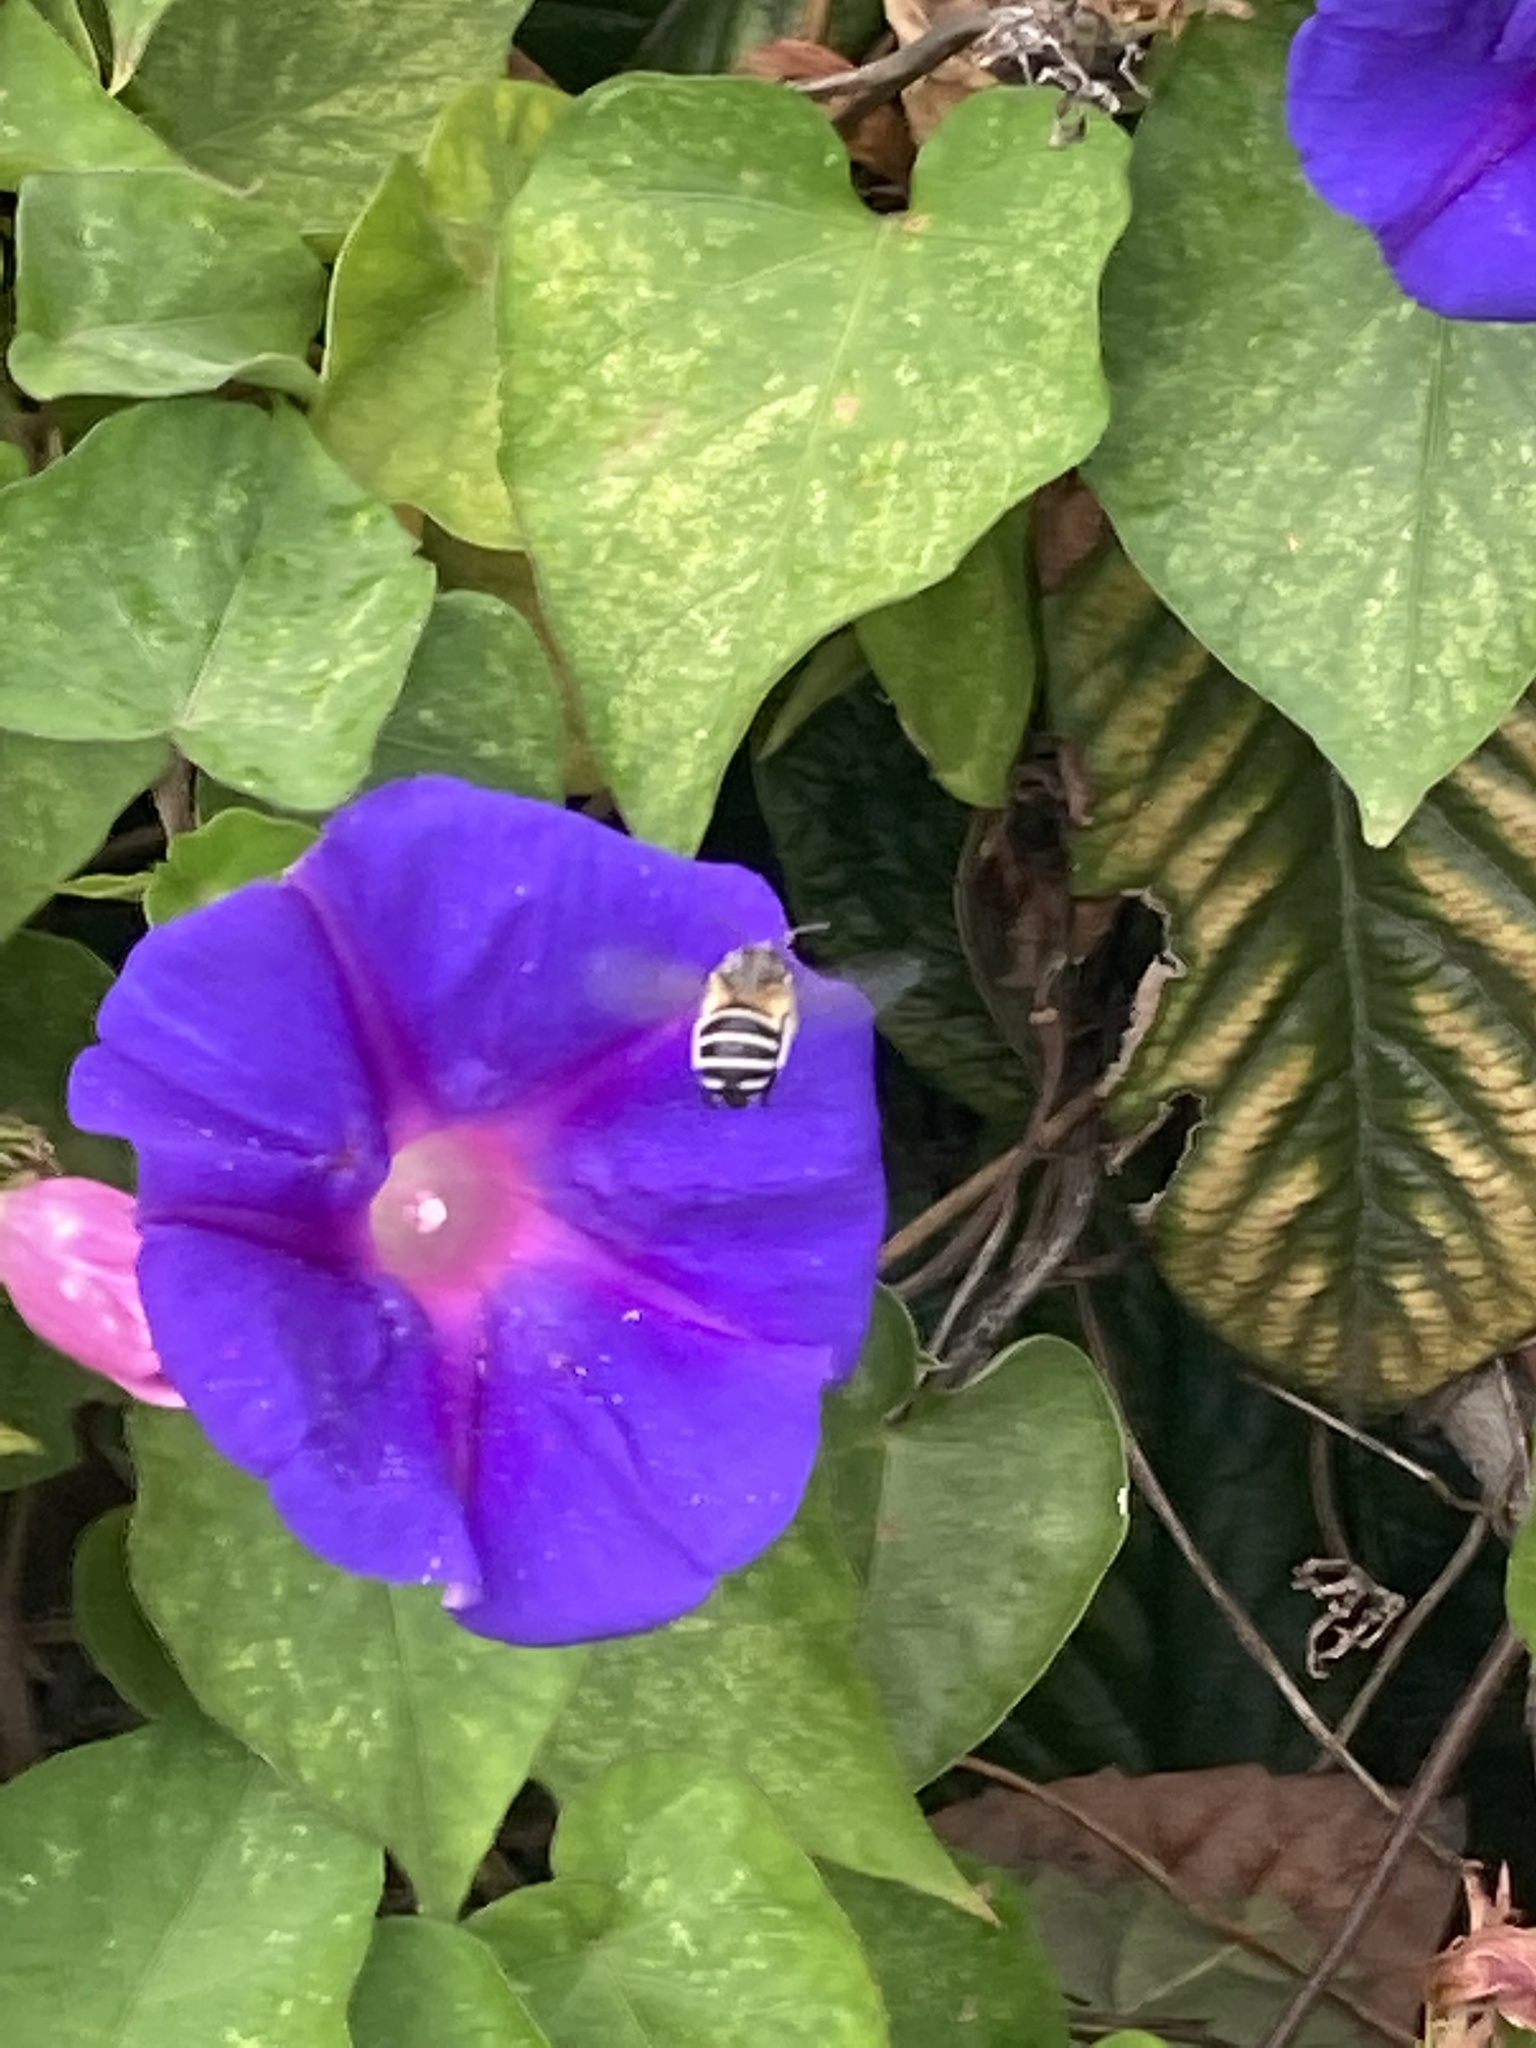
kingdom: Plantae
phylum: Tracheophyta
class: Magnoliopsida
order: Solanales
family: Convolvulaceae
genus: Ipomoea
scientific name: Ipomoea indica
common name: Blue dawnflower
